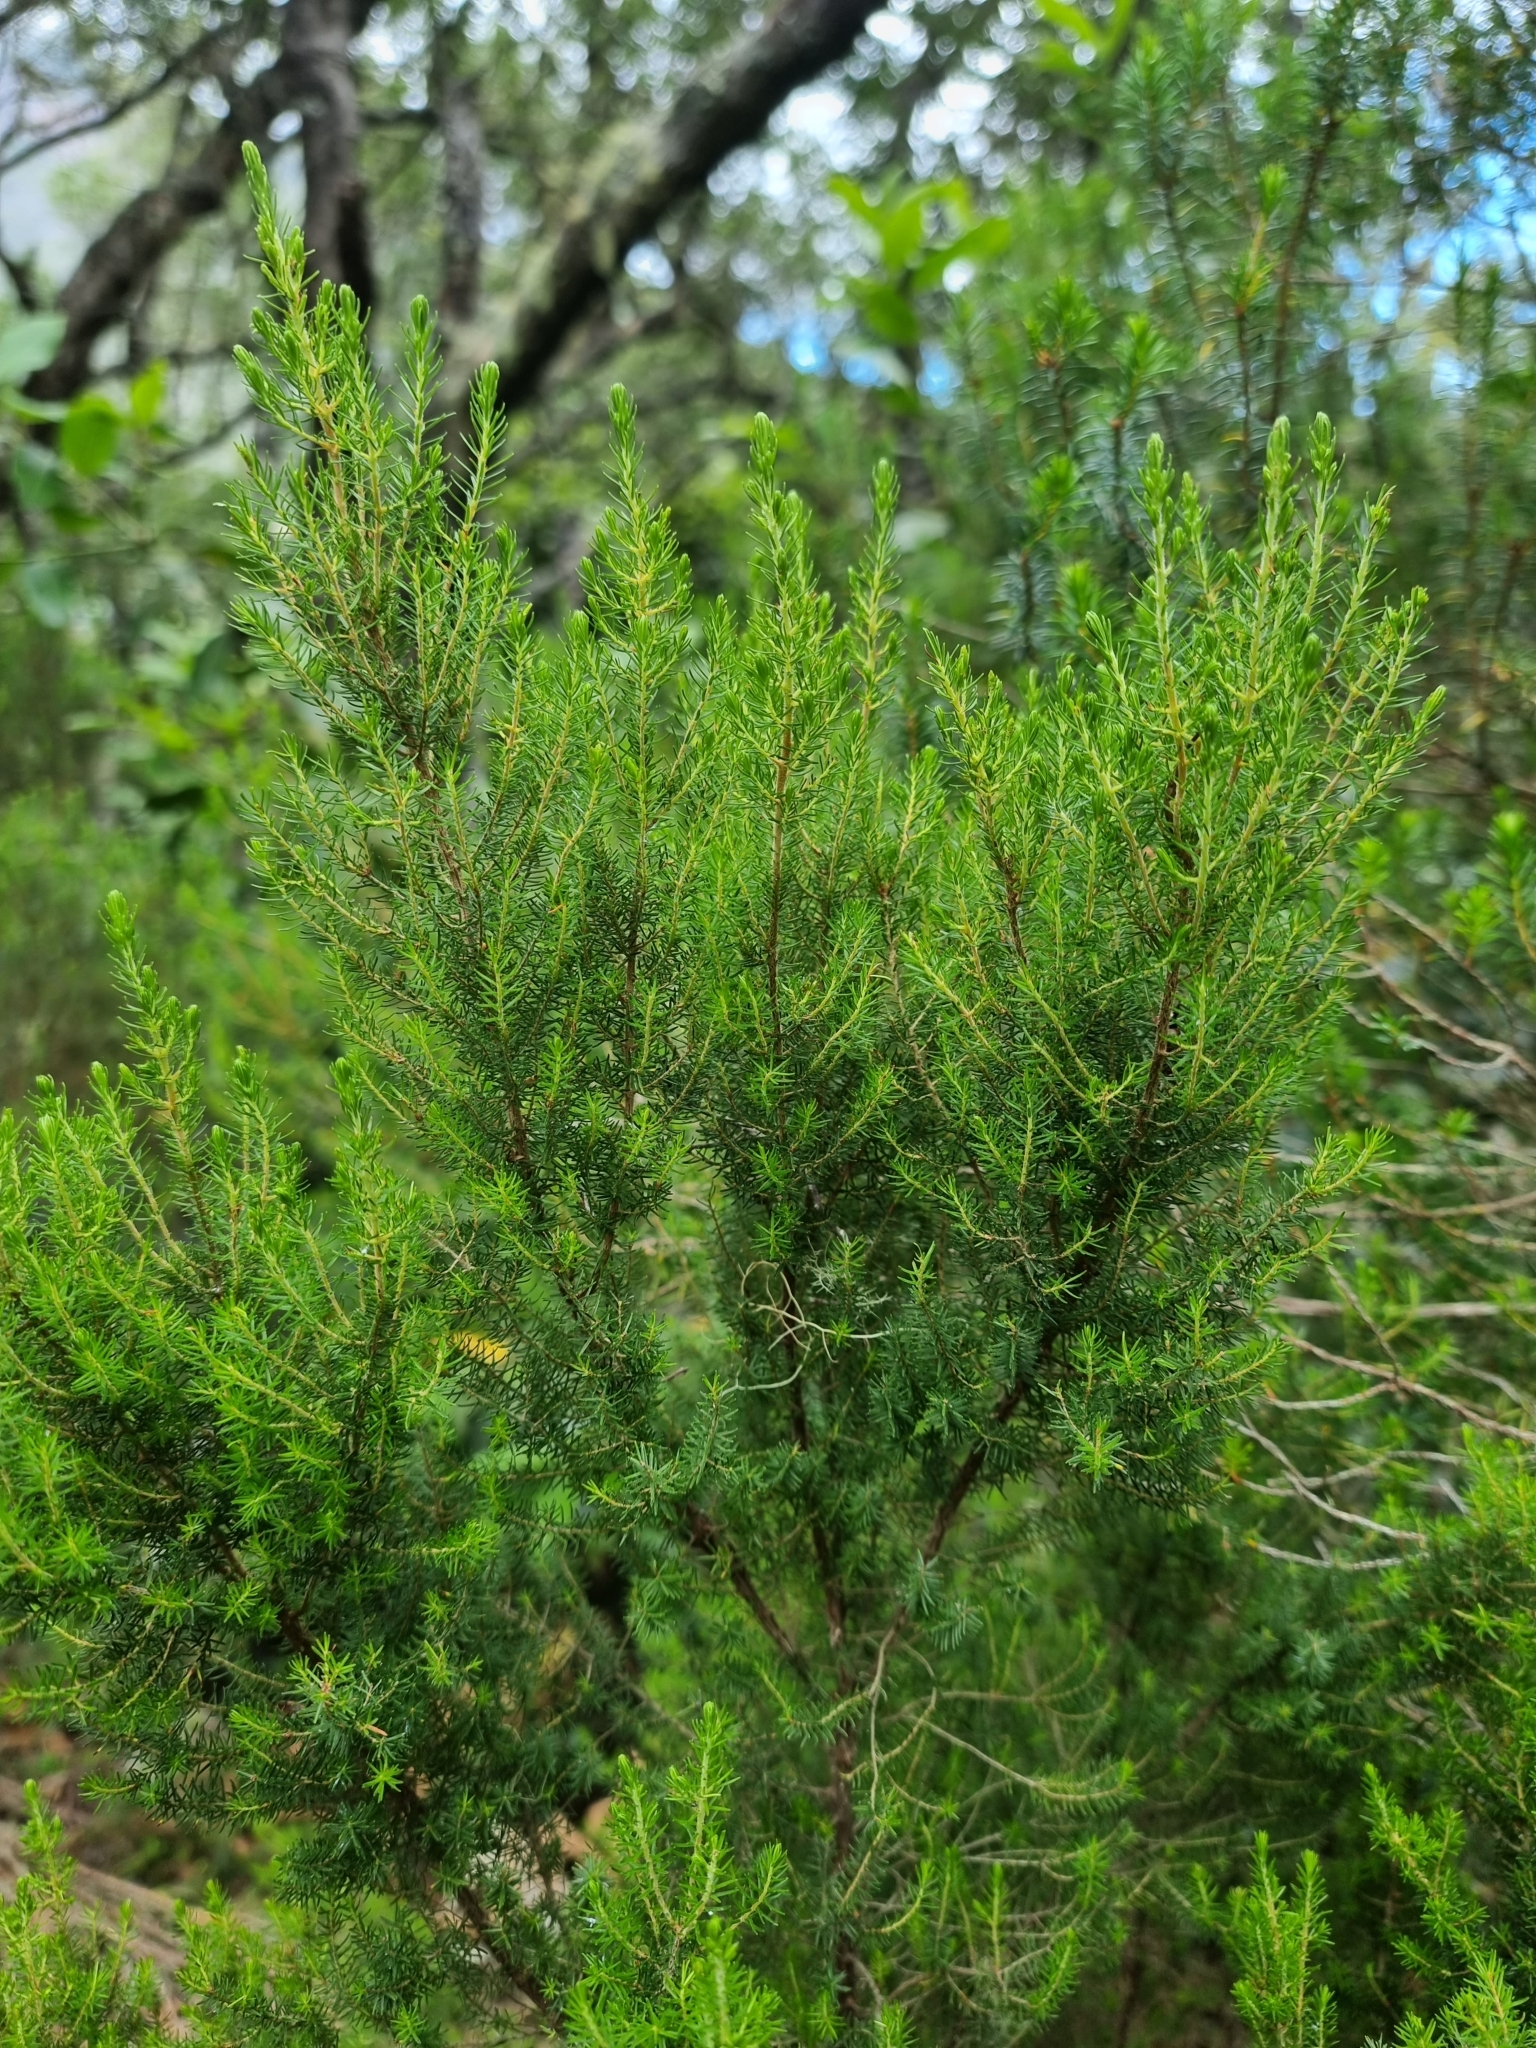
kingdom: Plantae
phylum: Tracheophyta
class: Magnoliopsida
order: Ericales
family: Ericaceae
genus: Erica
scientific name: Erica canariensis
